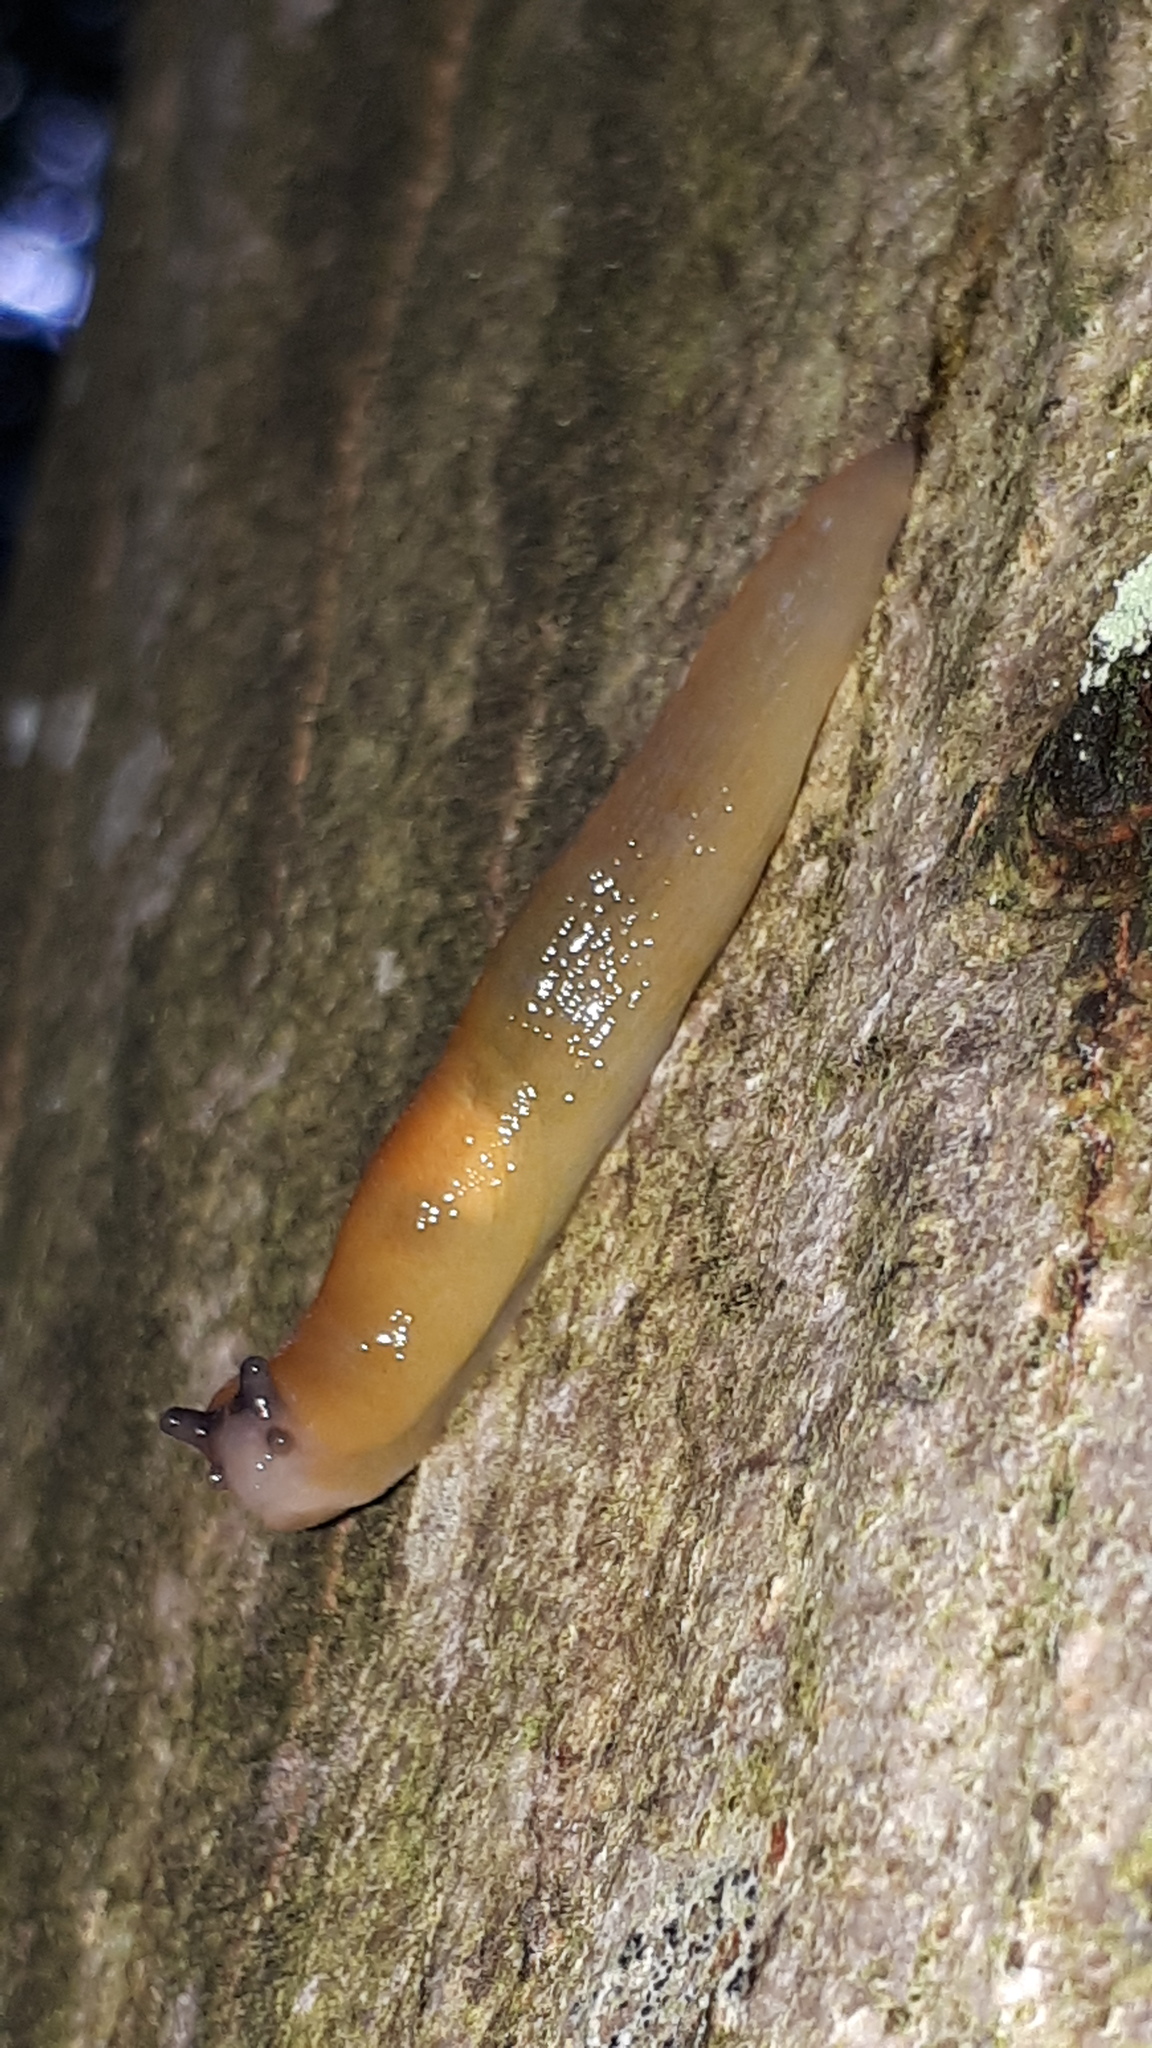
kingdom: Animalia
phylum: Mollusca
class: Gastropoda
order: Stylommatophora
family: Limacidae
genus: Malacolimax
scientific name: Malacolimax tenellus
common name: Lemon slug
